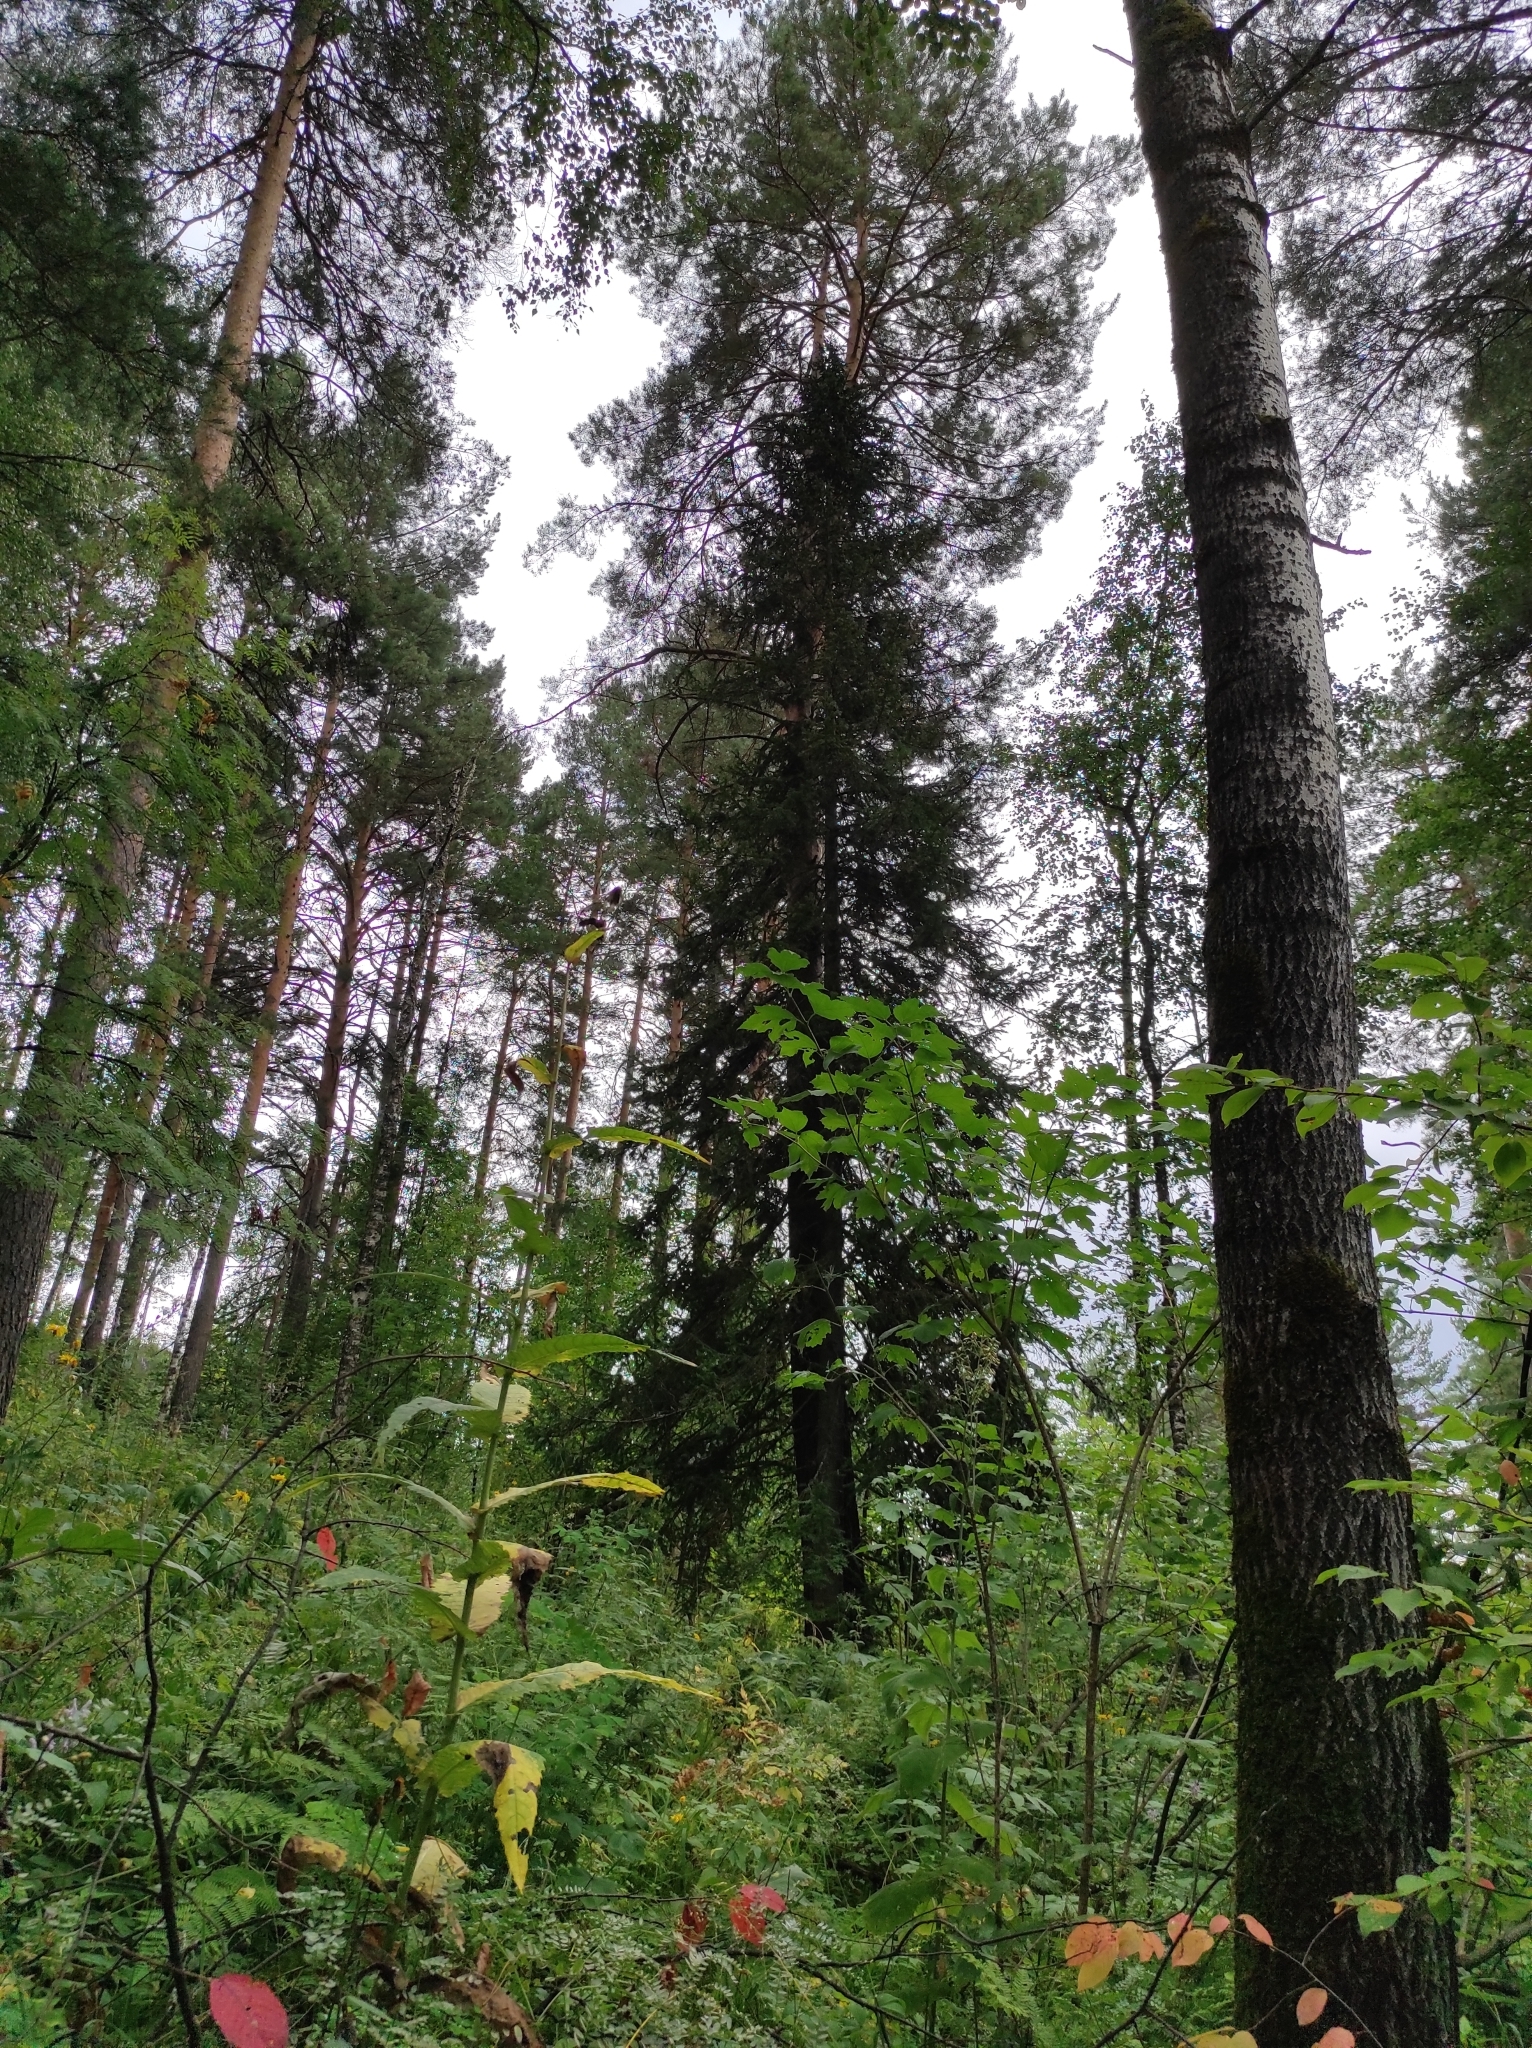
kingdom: Plantae
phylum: Tracheophyta
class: Pinopsida
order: Pinales
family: Pinaceae
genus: Abies
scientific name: Abies sibirica
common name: Siberian fir
